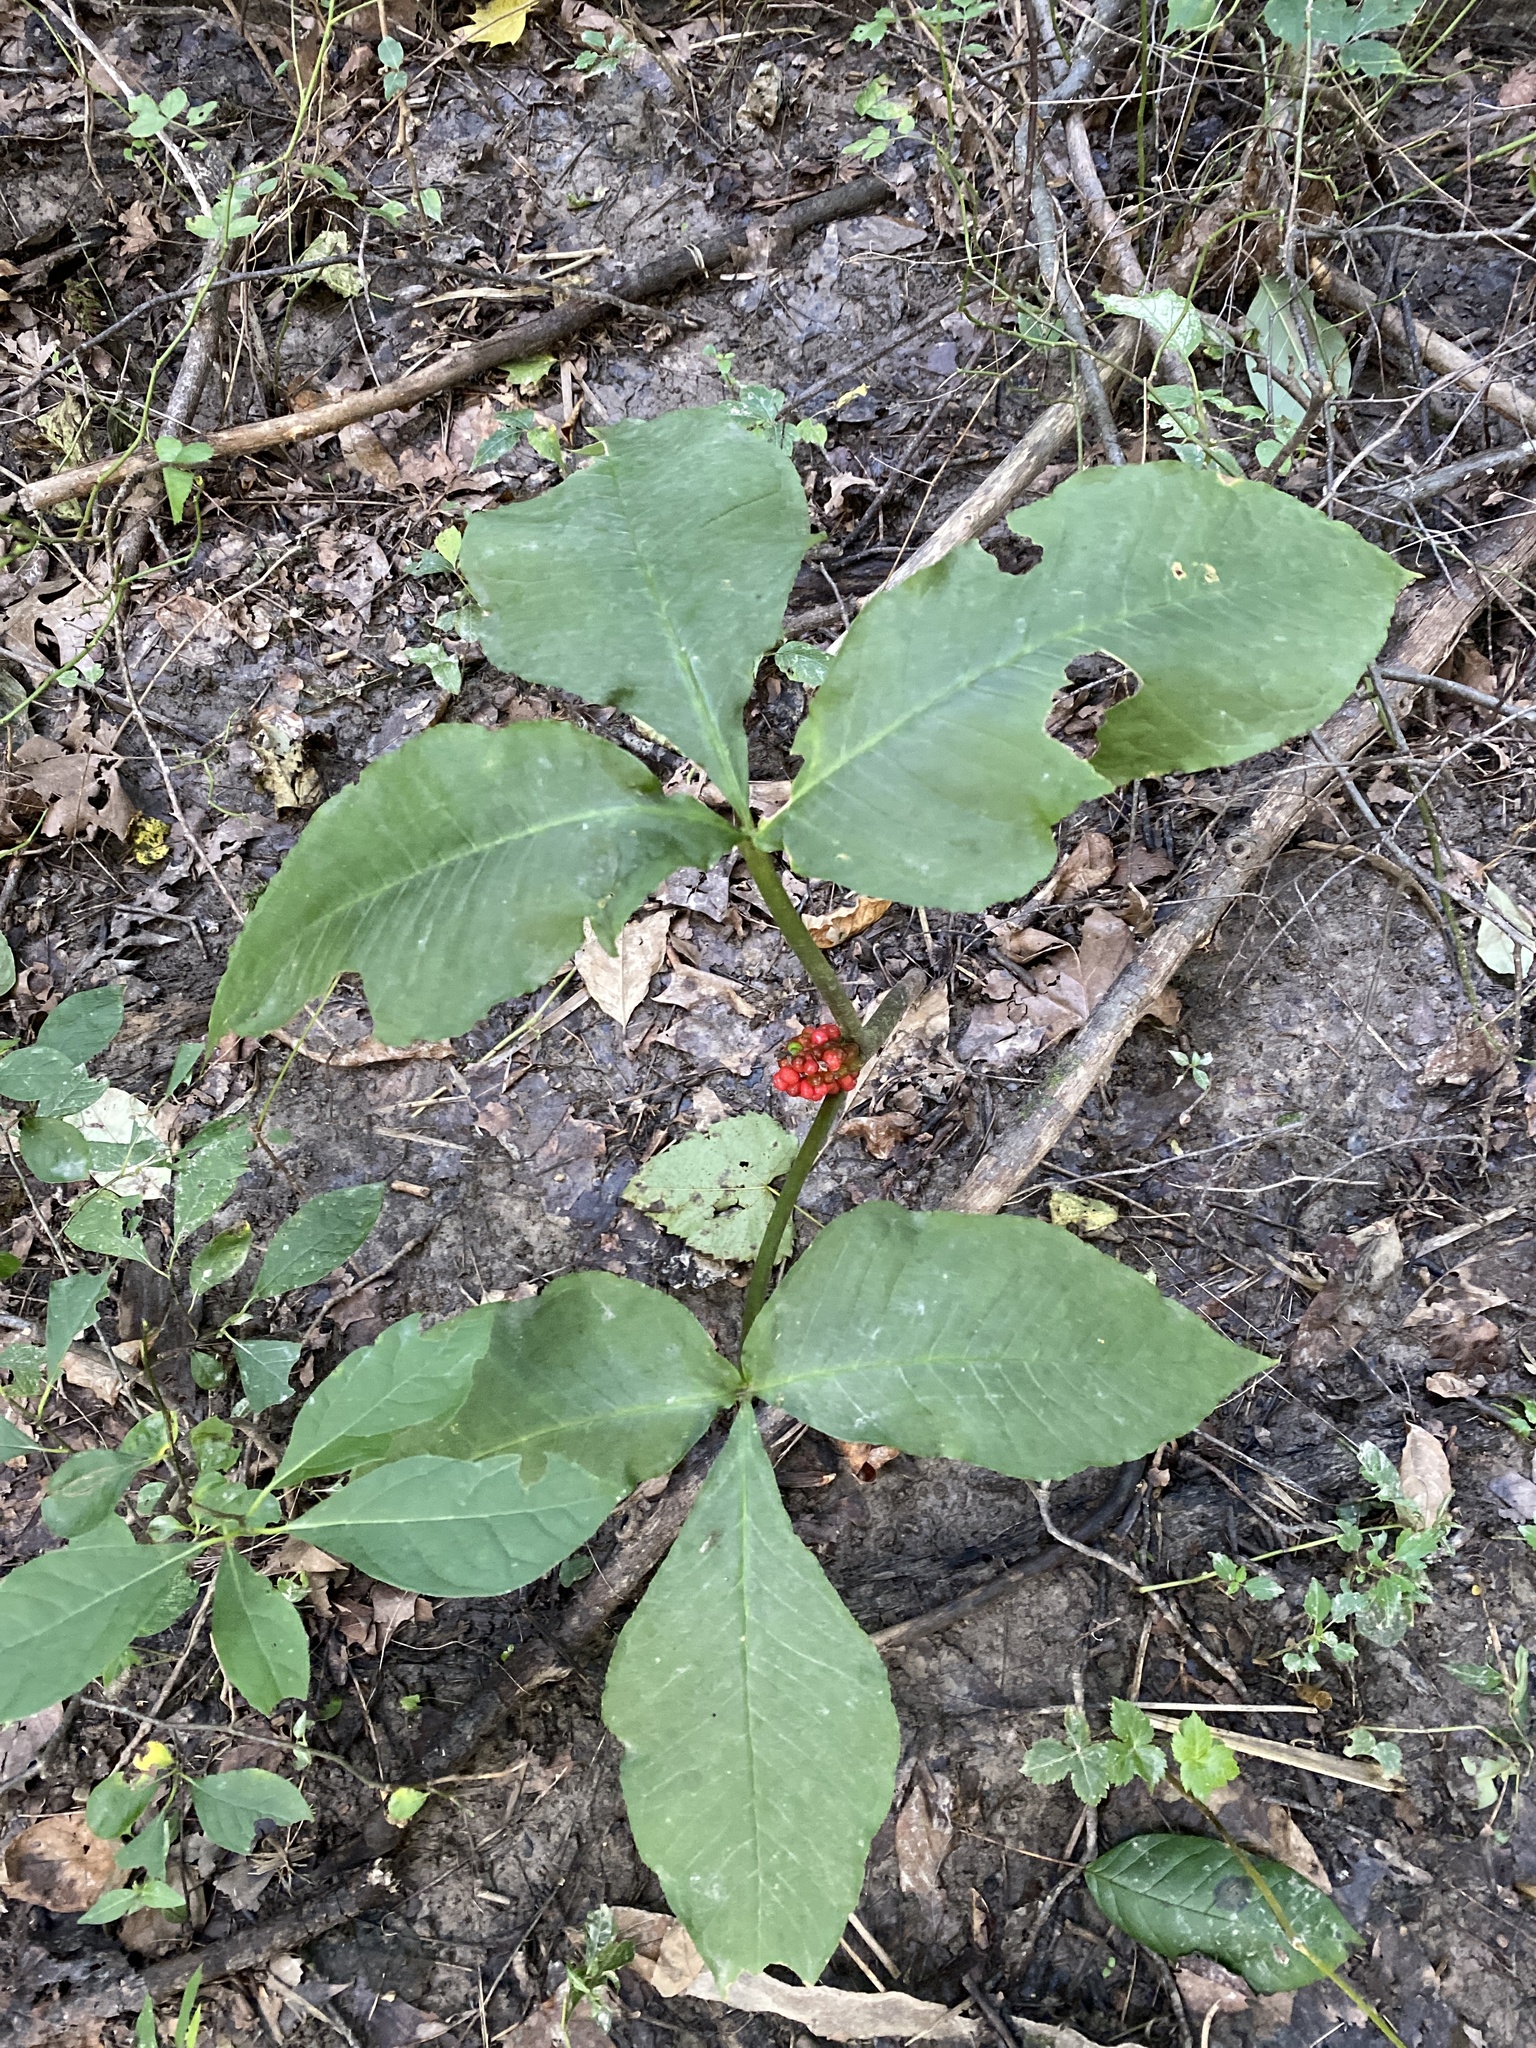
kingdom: Plantae
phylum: Tracheophyta
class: Liliopsida
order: Alismatales
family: Araceae
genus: Arisaema
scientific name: Arisaema triphyllum
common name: Jack-in-the-pulpit
